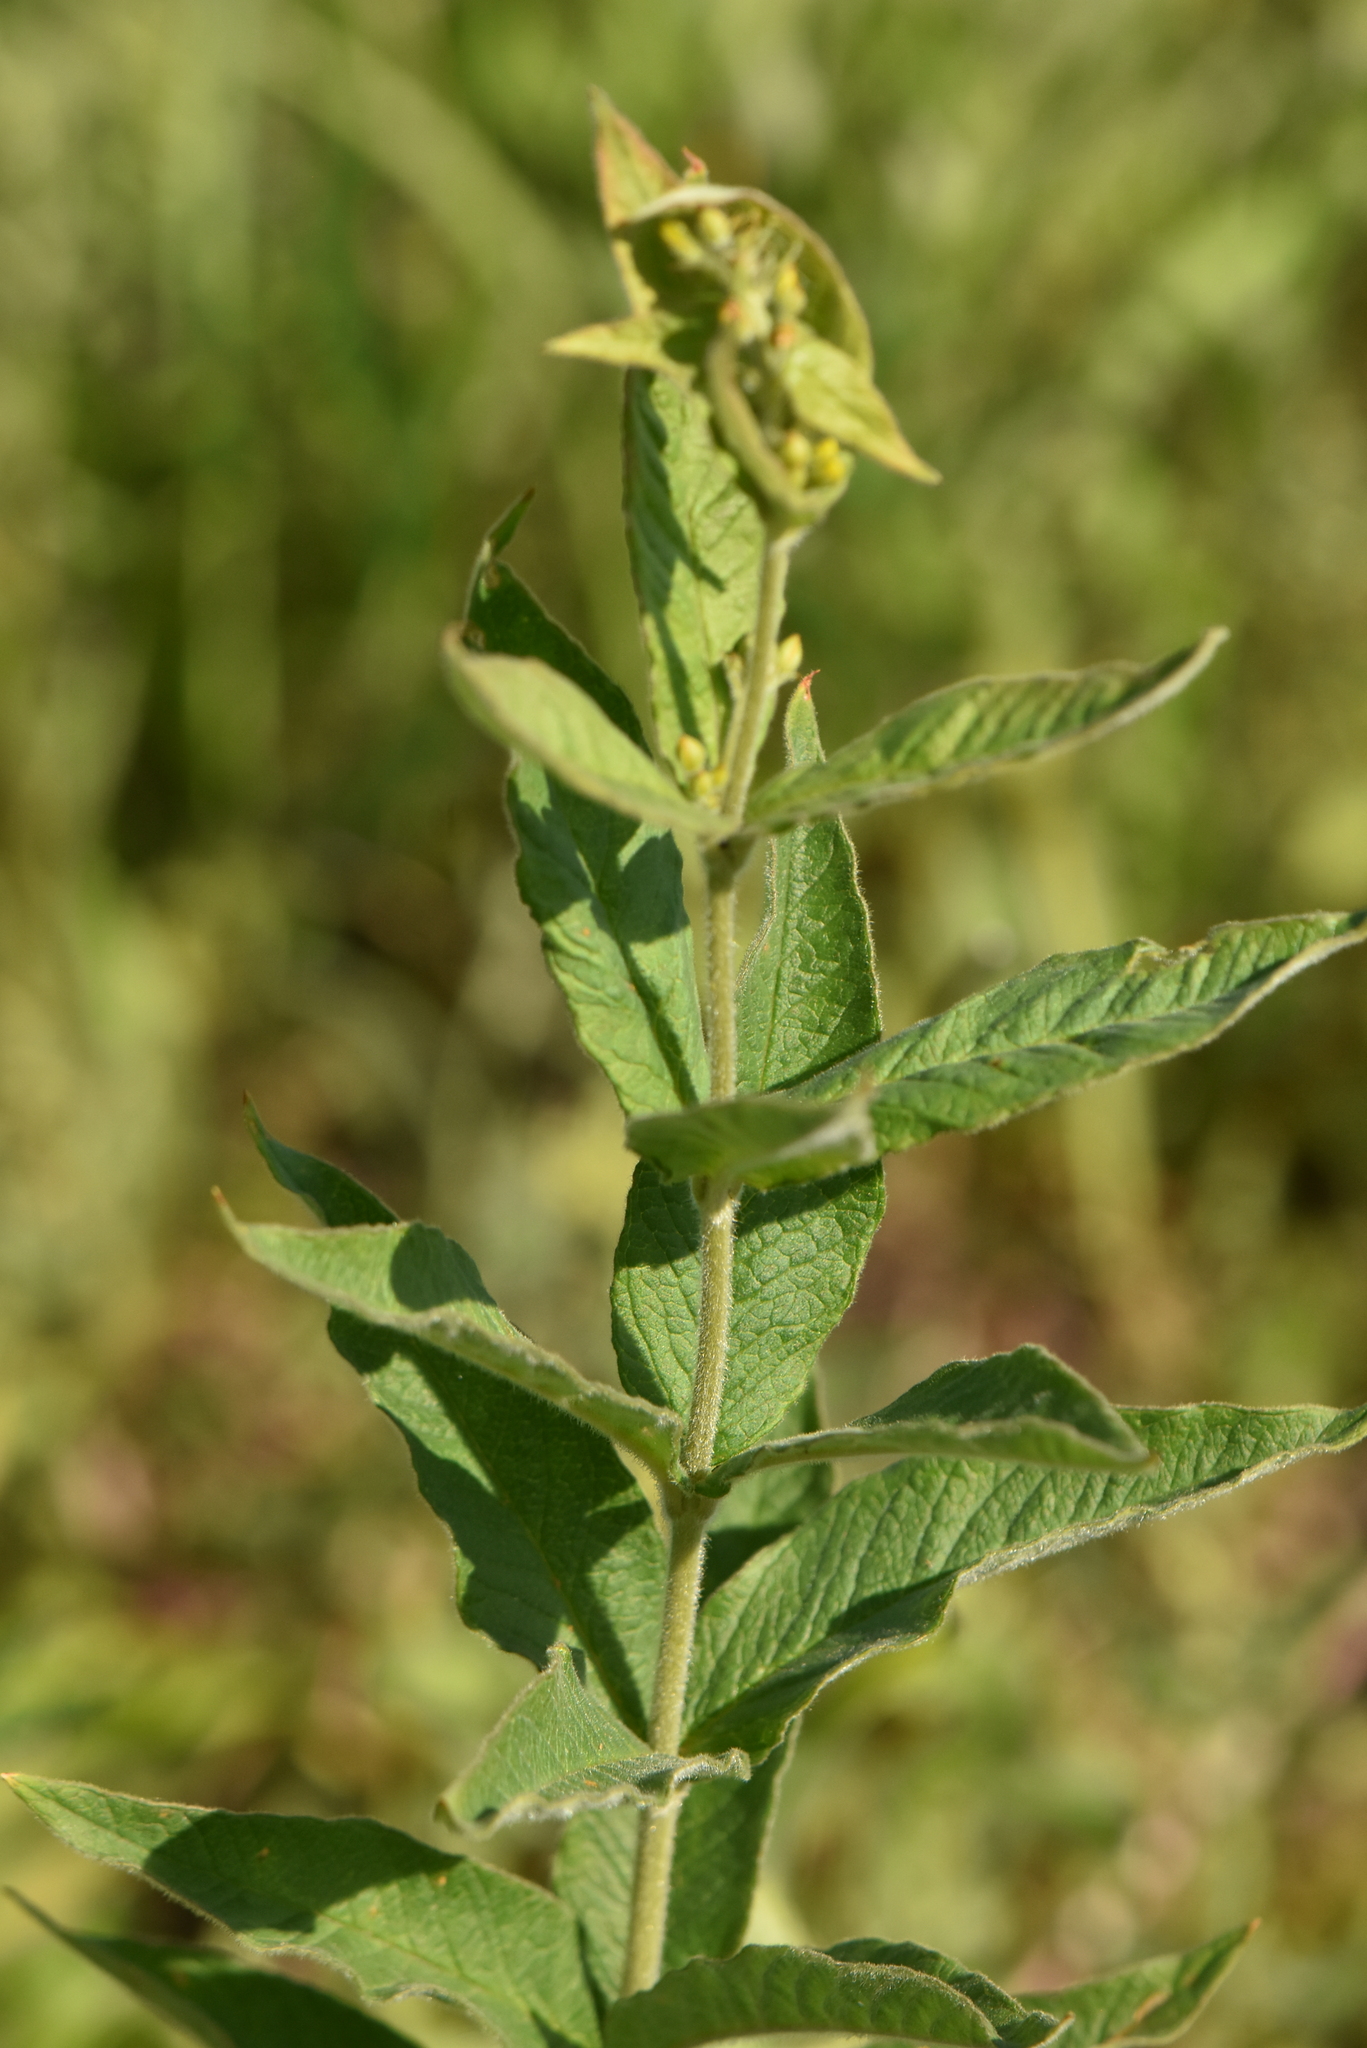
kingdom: Plantae
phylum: Tracheophyta
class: Magnoliopsida
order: Ericales
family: Primulaceae
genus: Lysimachia
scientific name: Lysimachia vulgaris
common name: Yellow loosestrife
